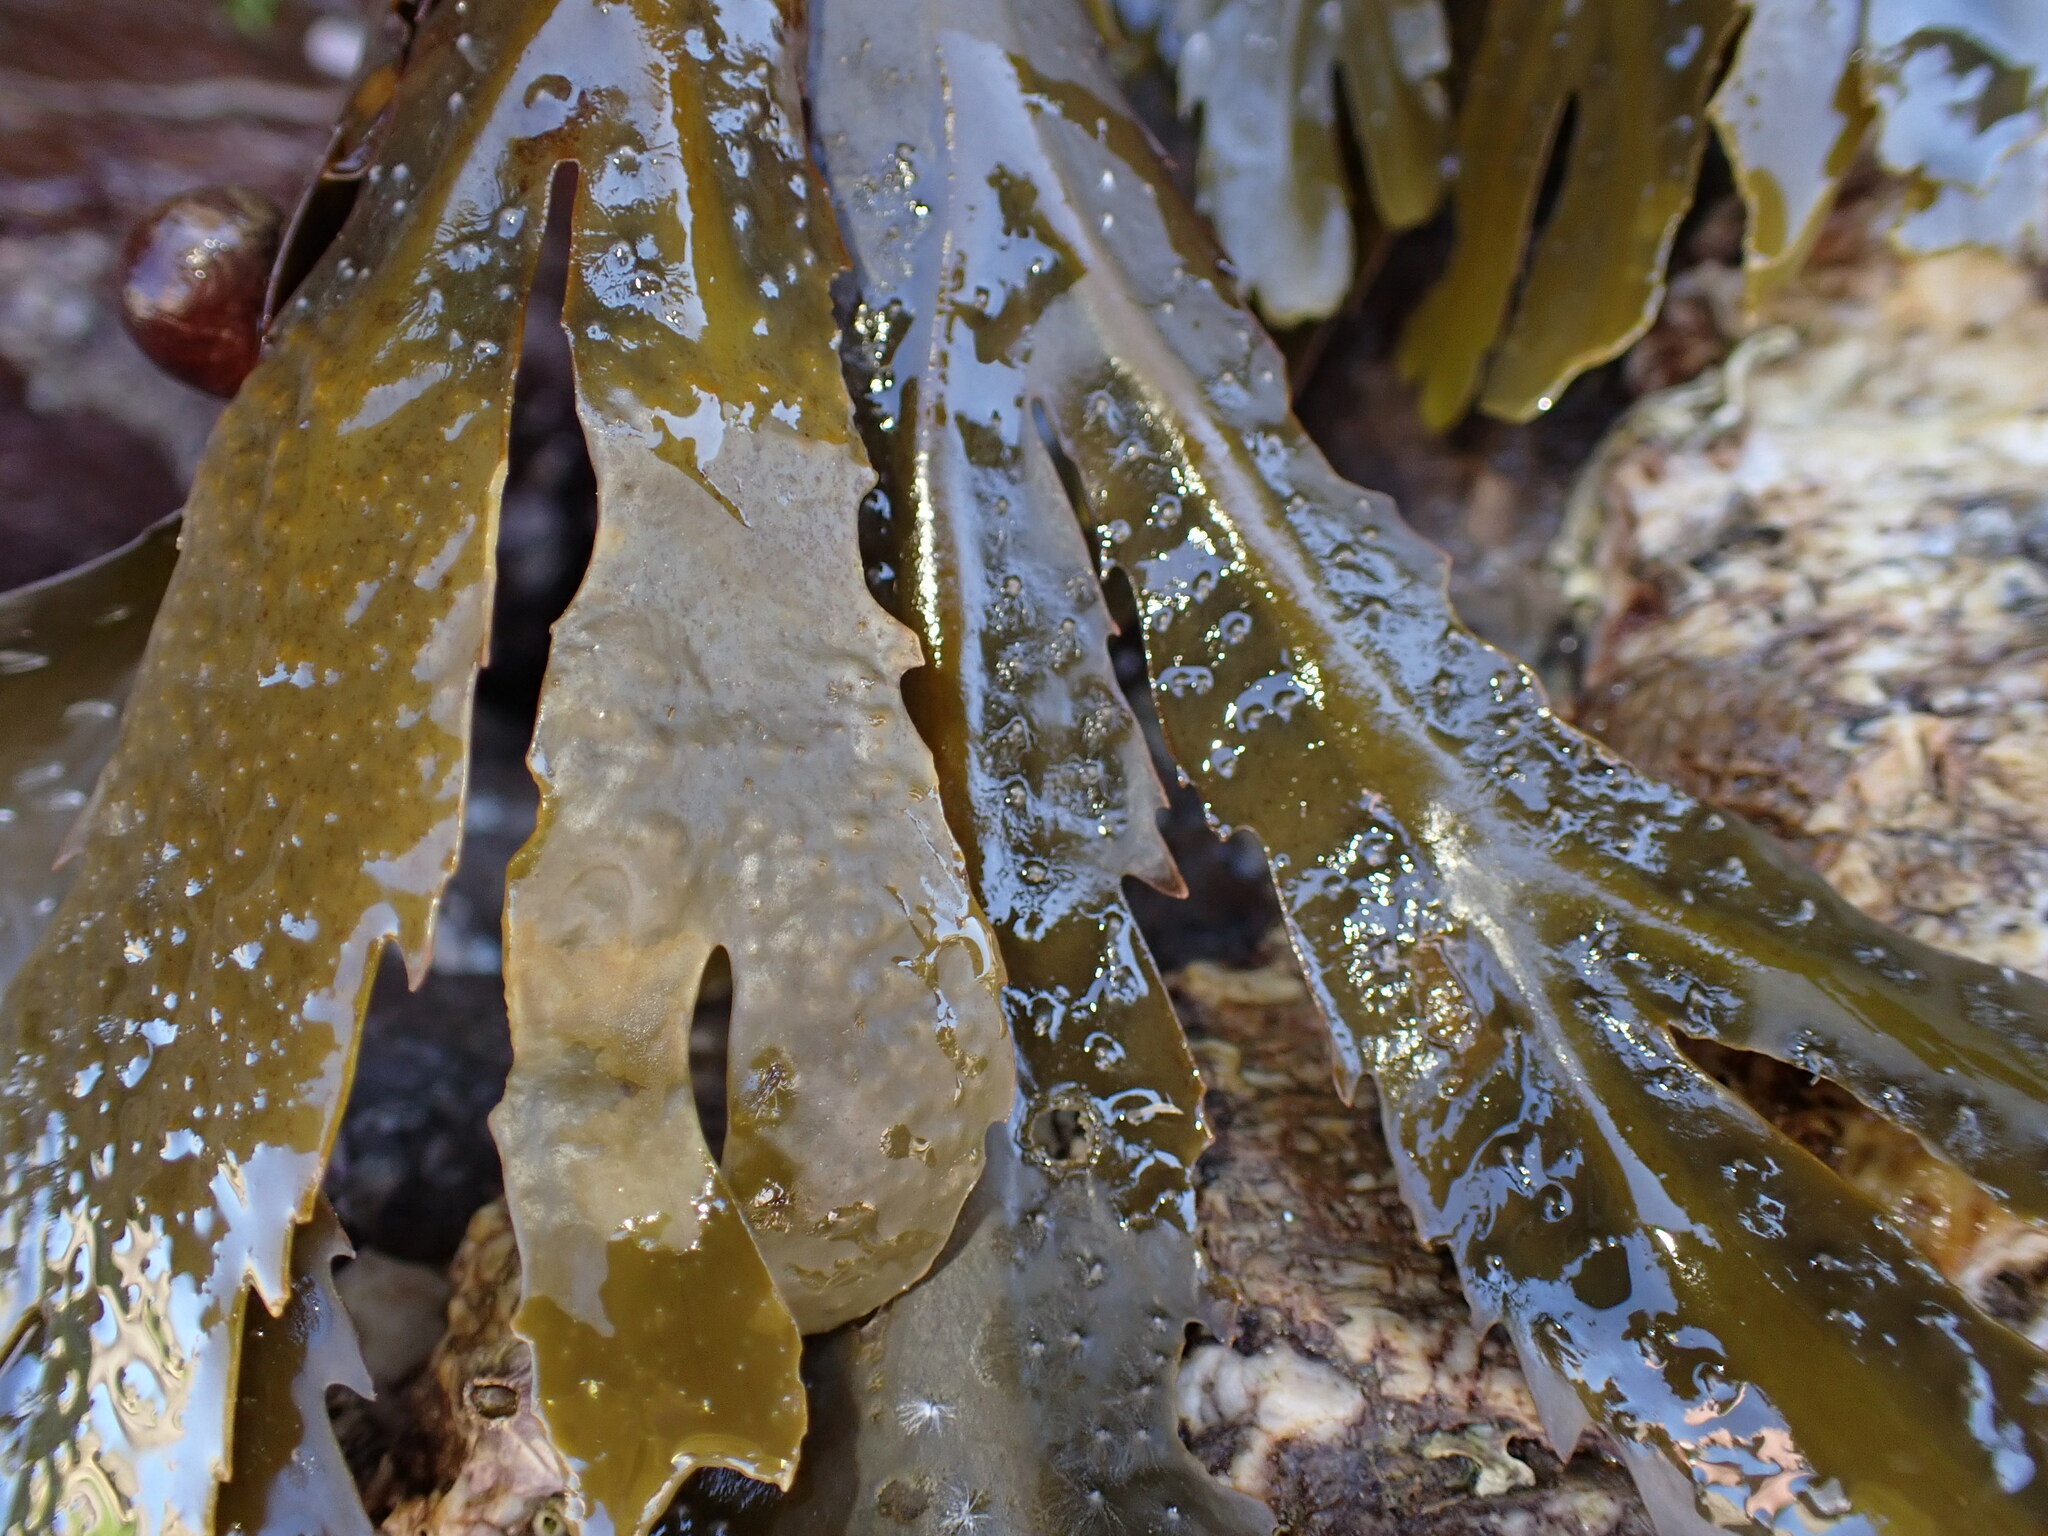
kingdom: Chromista
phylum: Ochrophyta
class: Phaeophyceae
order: Fucales
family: Fucaceae
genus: Fucus
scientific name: Fucus serratus
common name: Toothed wrack
